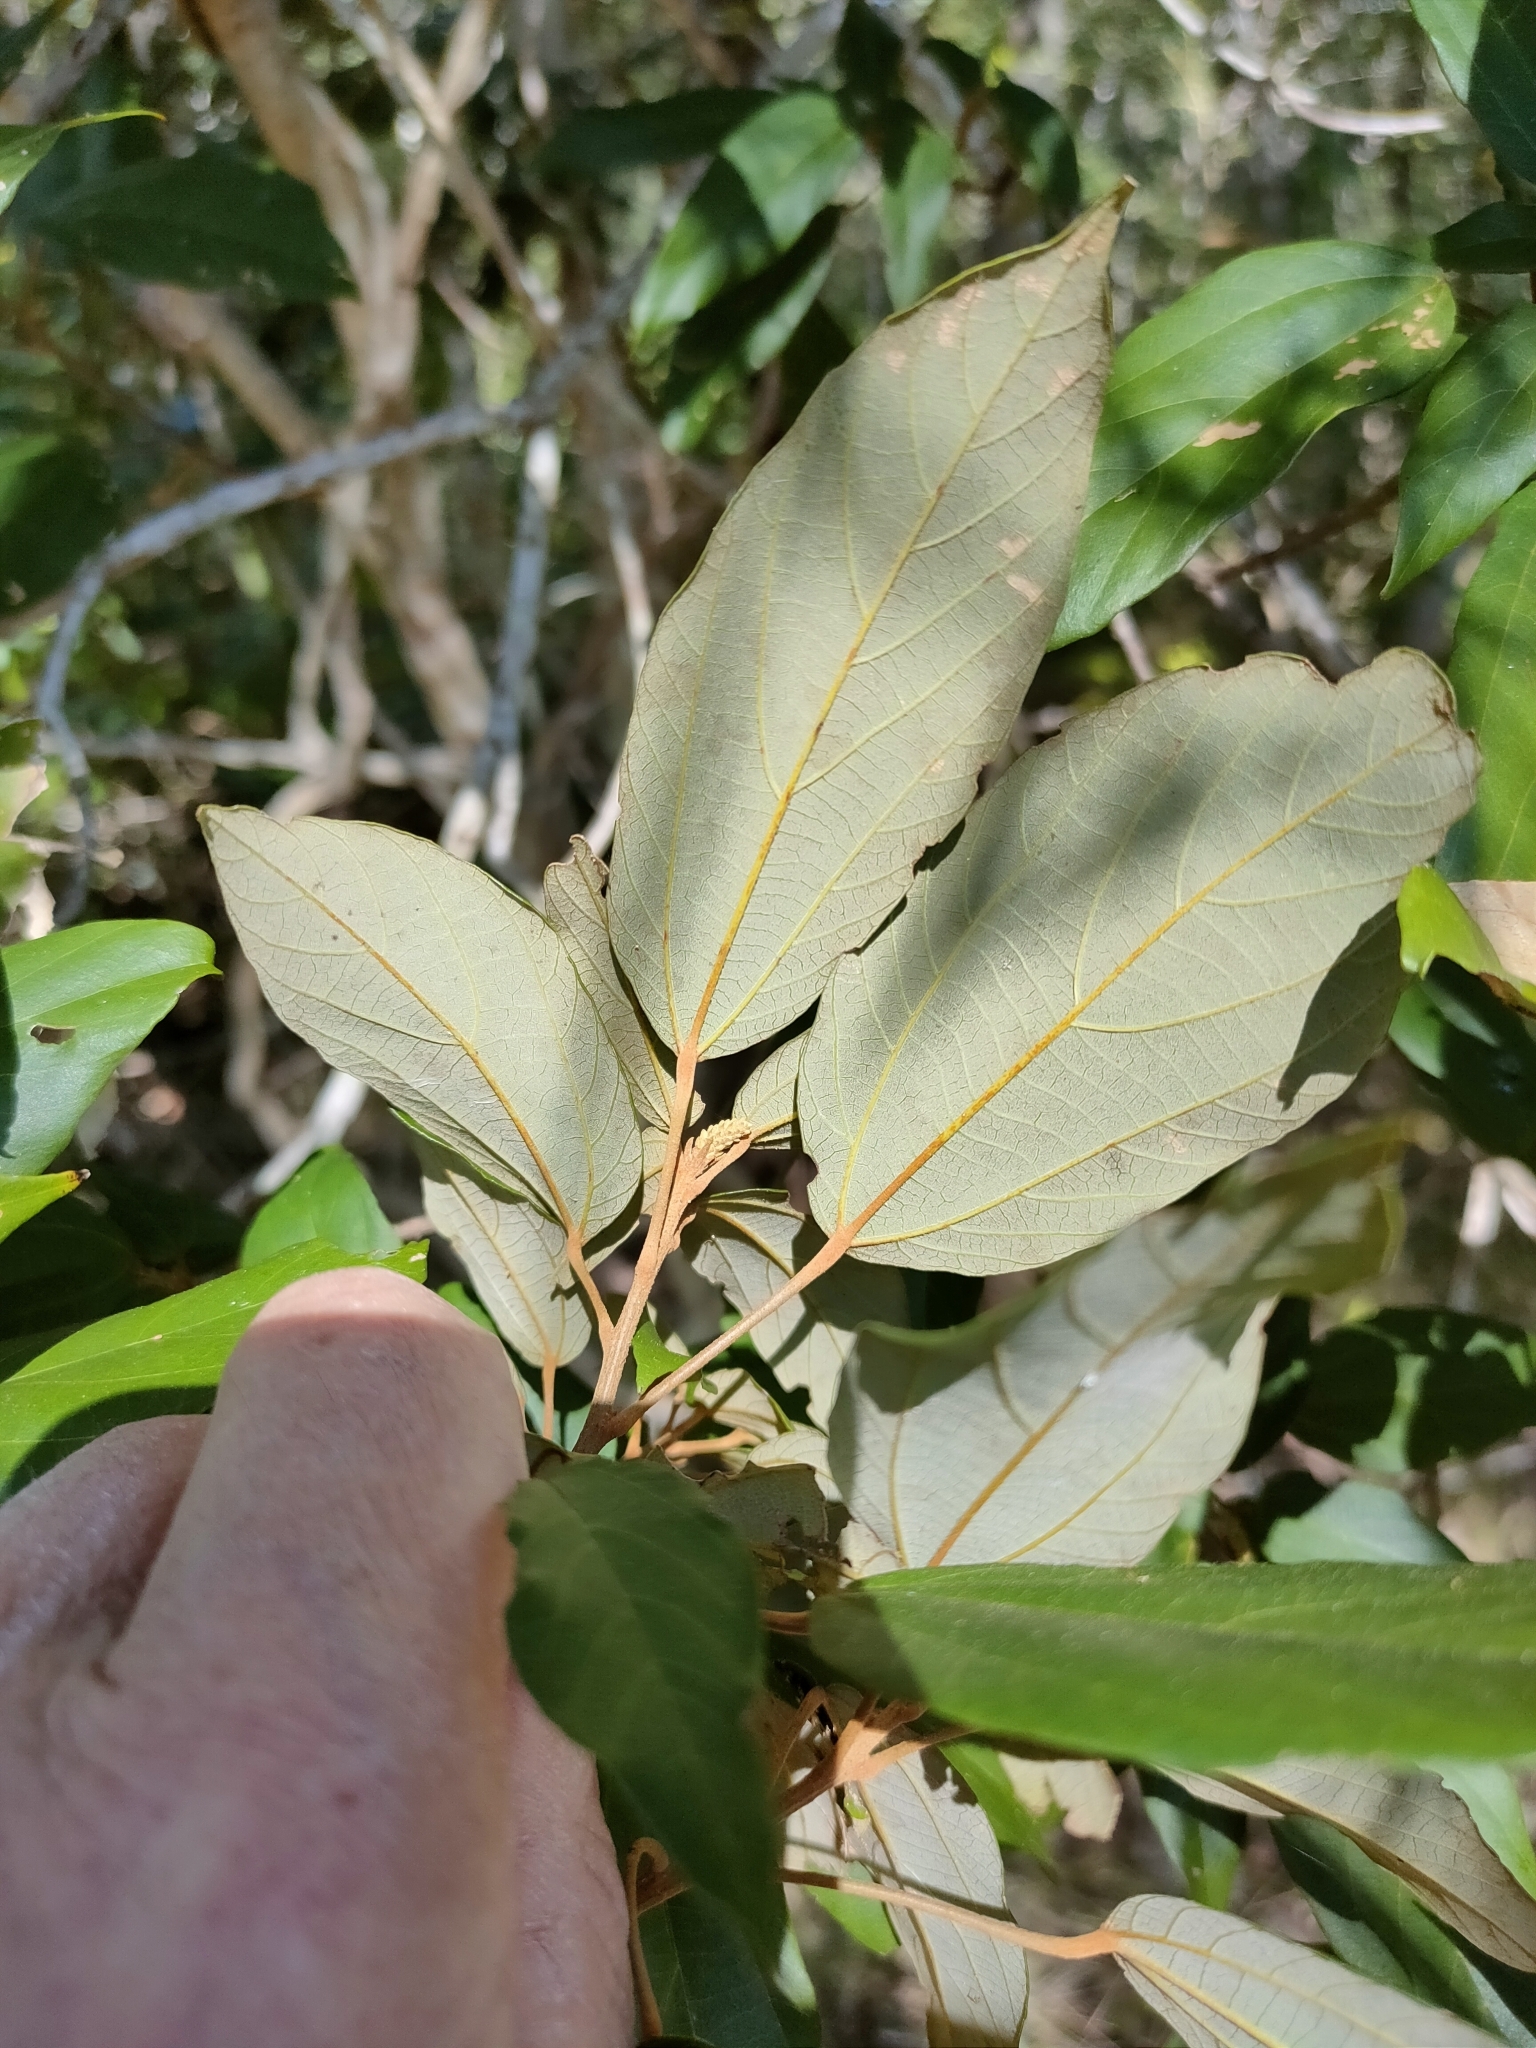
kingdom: Plantae
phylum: Tracheophyta
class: Magnoliopsida
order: Malpighiales
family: Euphorbiaceae
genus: Mallotus
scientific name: Mallotus philippensis
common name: Kamala tree
